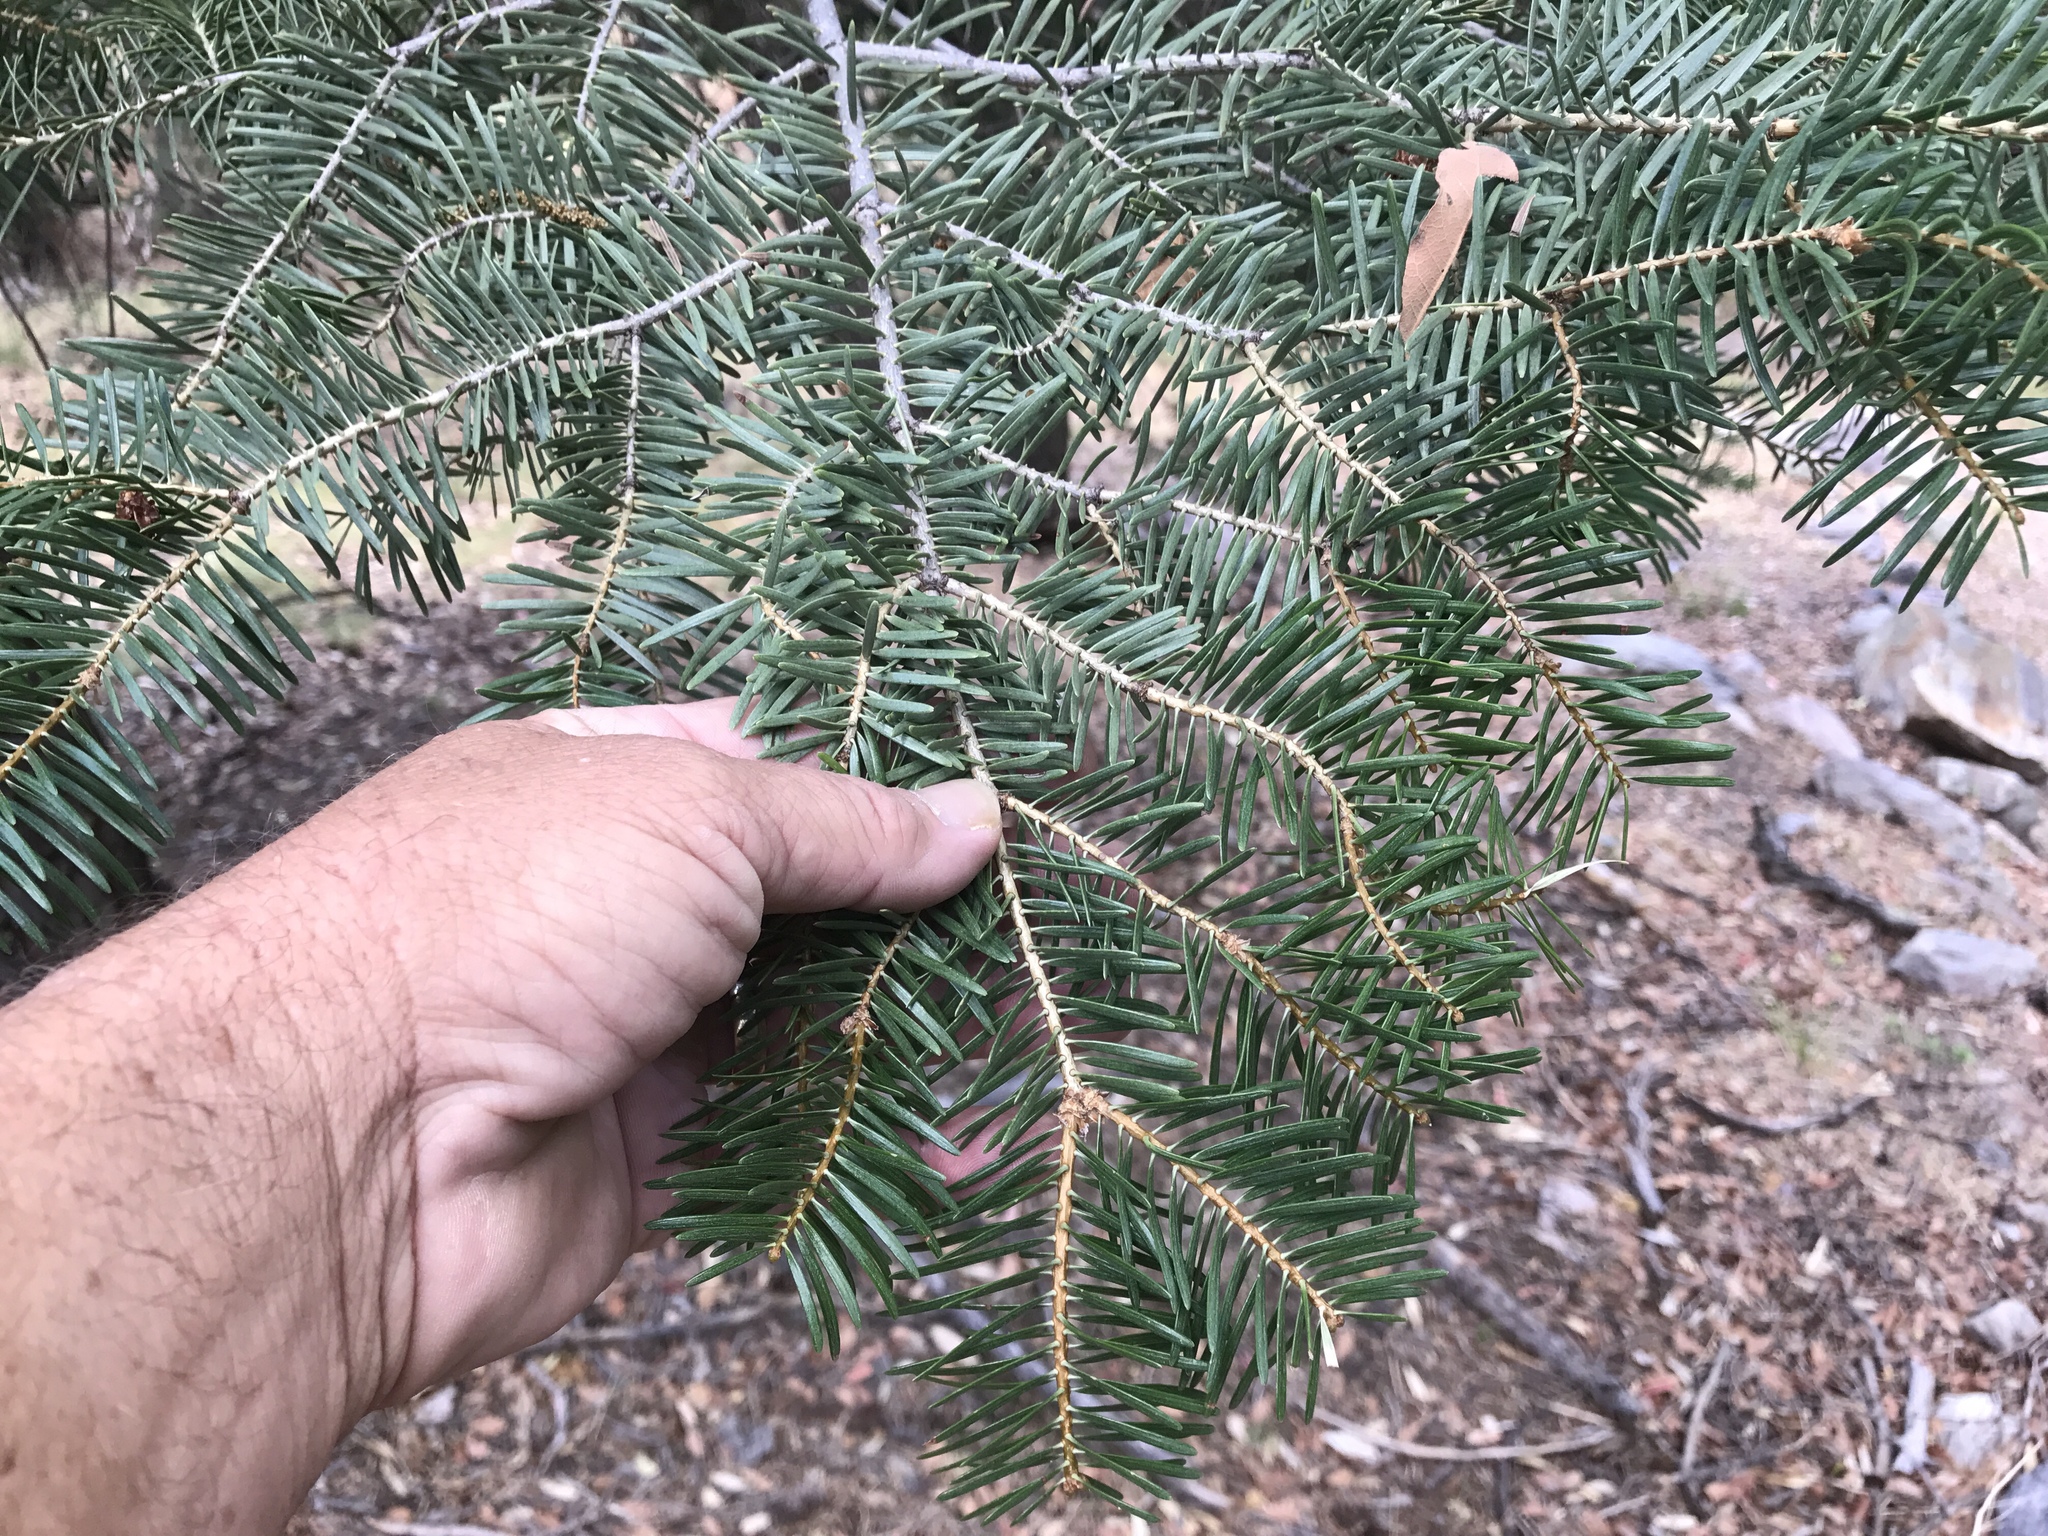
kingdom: Plantae
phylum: Tracheophyta
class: Pinopsida
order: Pinales
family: Pinaceae
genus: Abies
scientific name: Abies concolor
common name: Colorado fir
